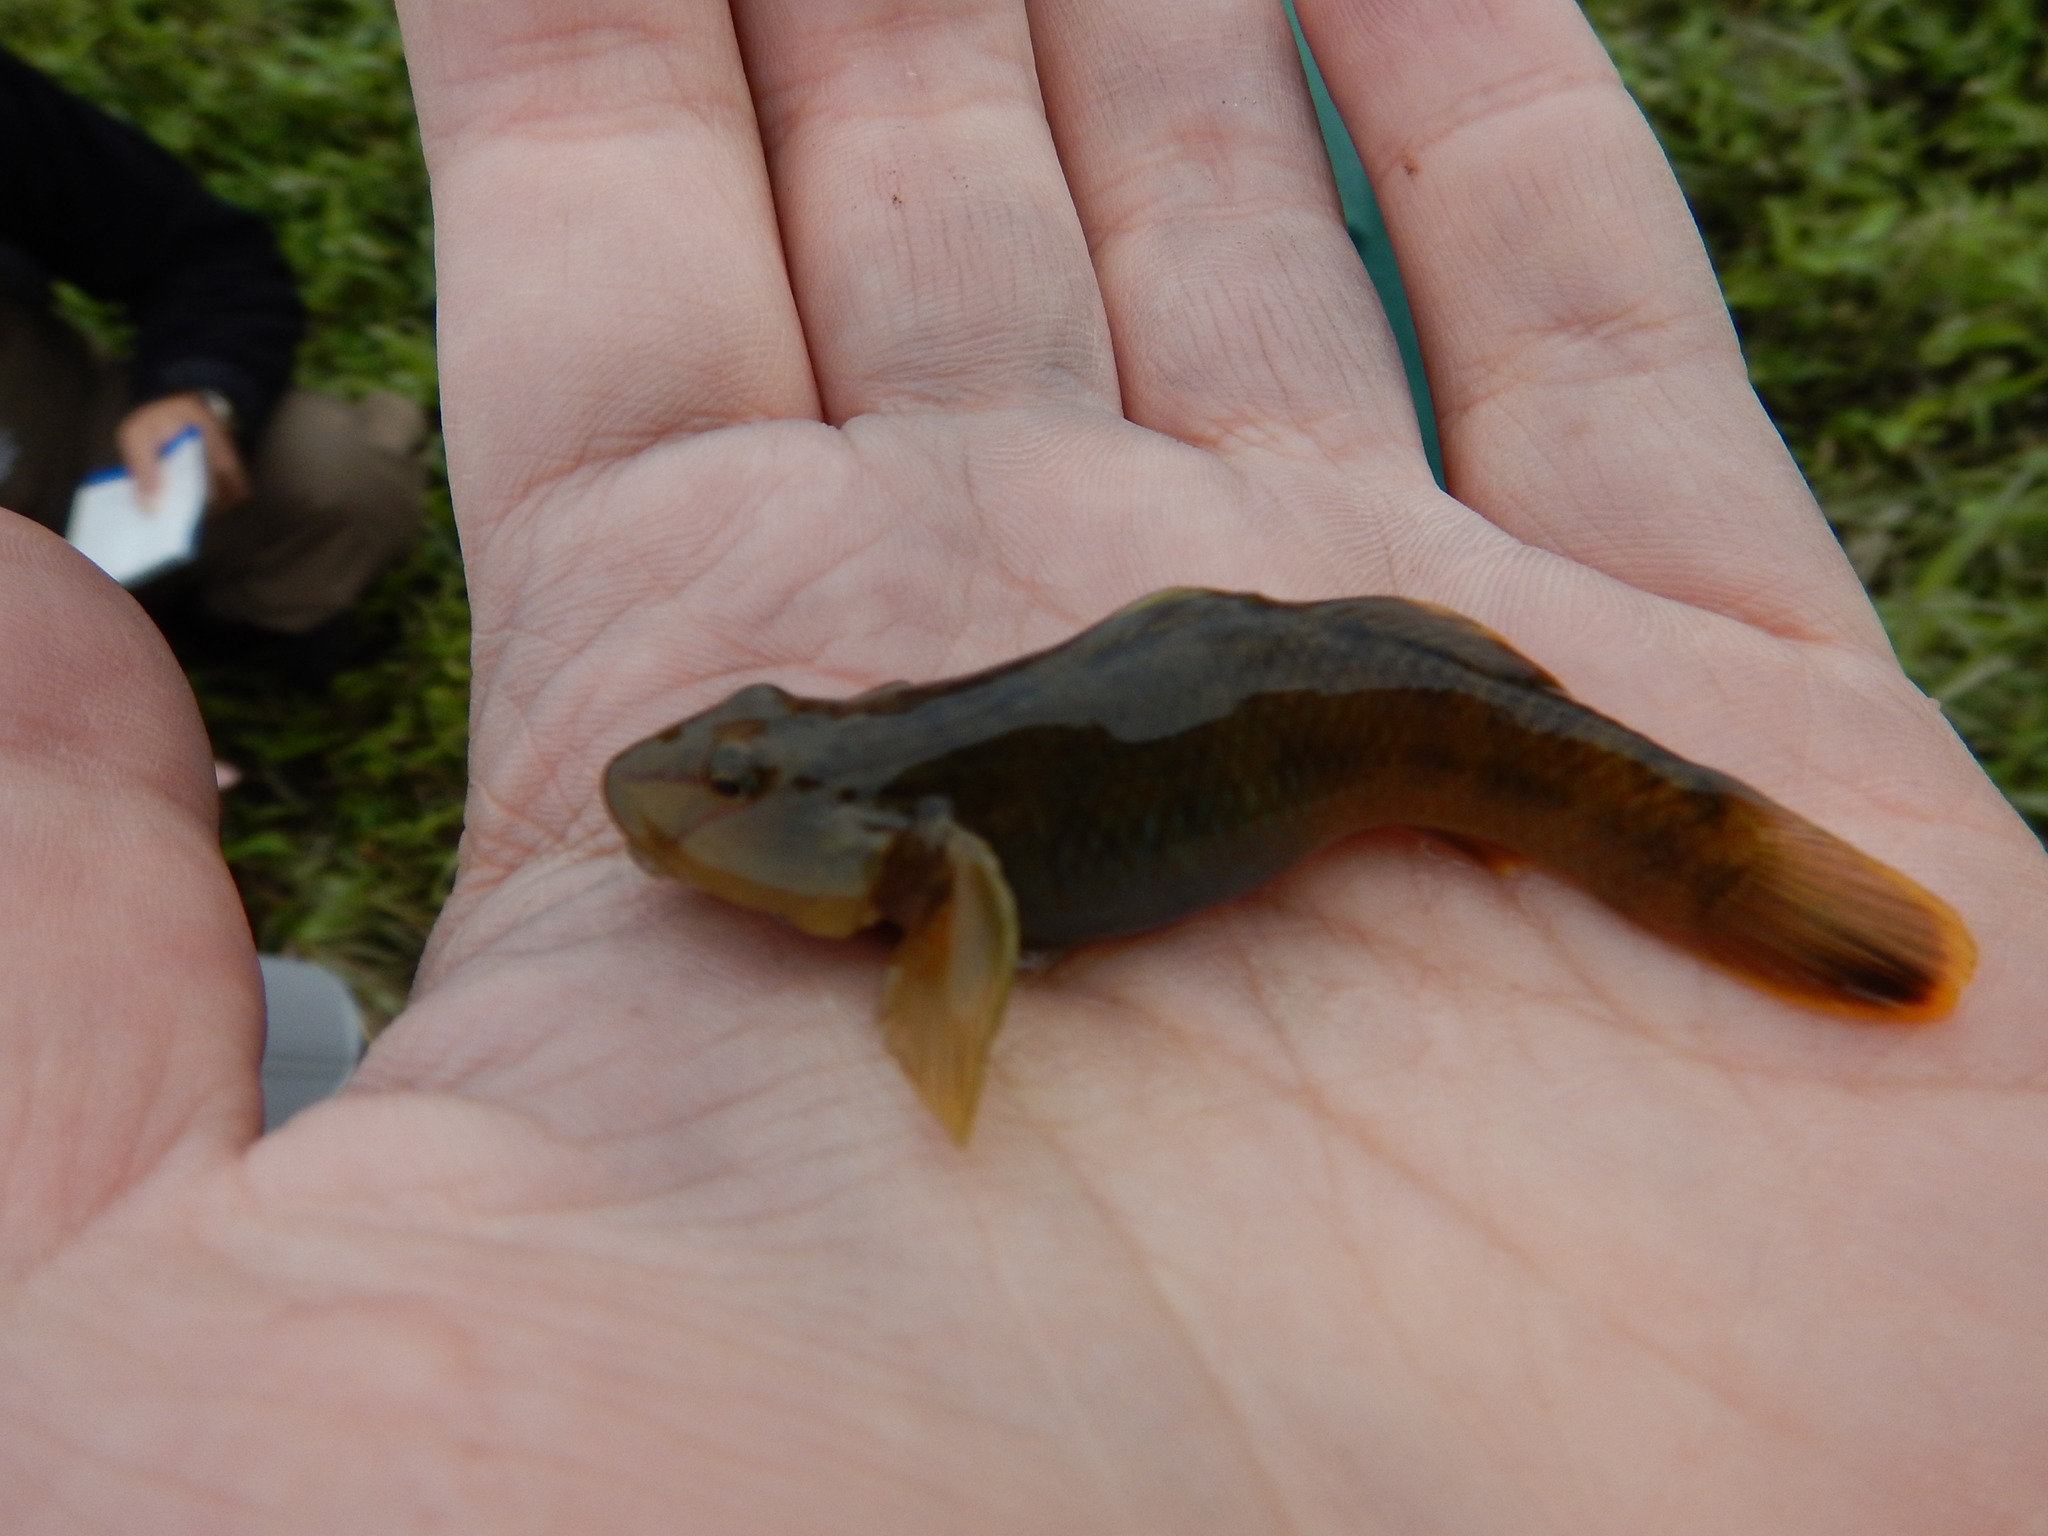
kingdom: Animalia
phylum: Chordata
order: Perciformes
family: Gobiidae
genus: Rhinogobius
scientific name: Rhinogobius candidianus
